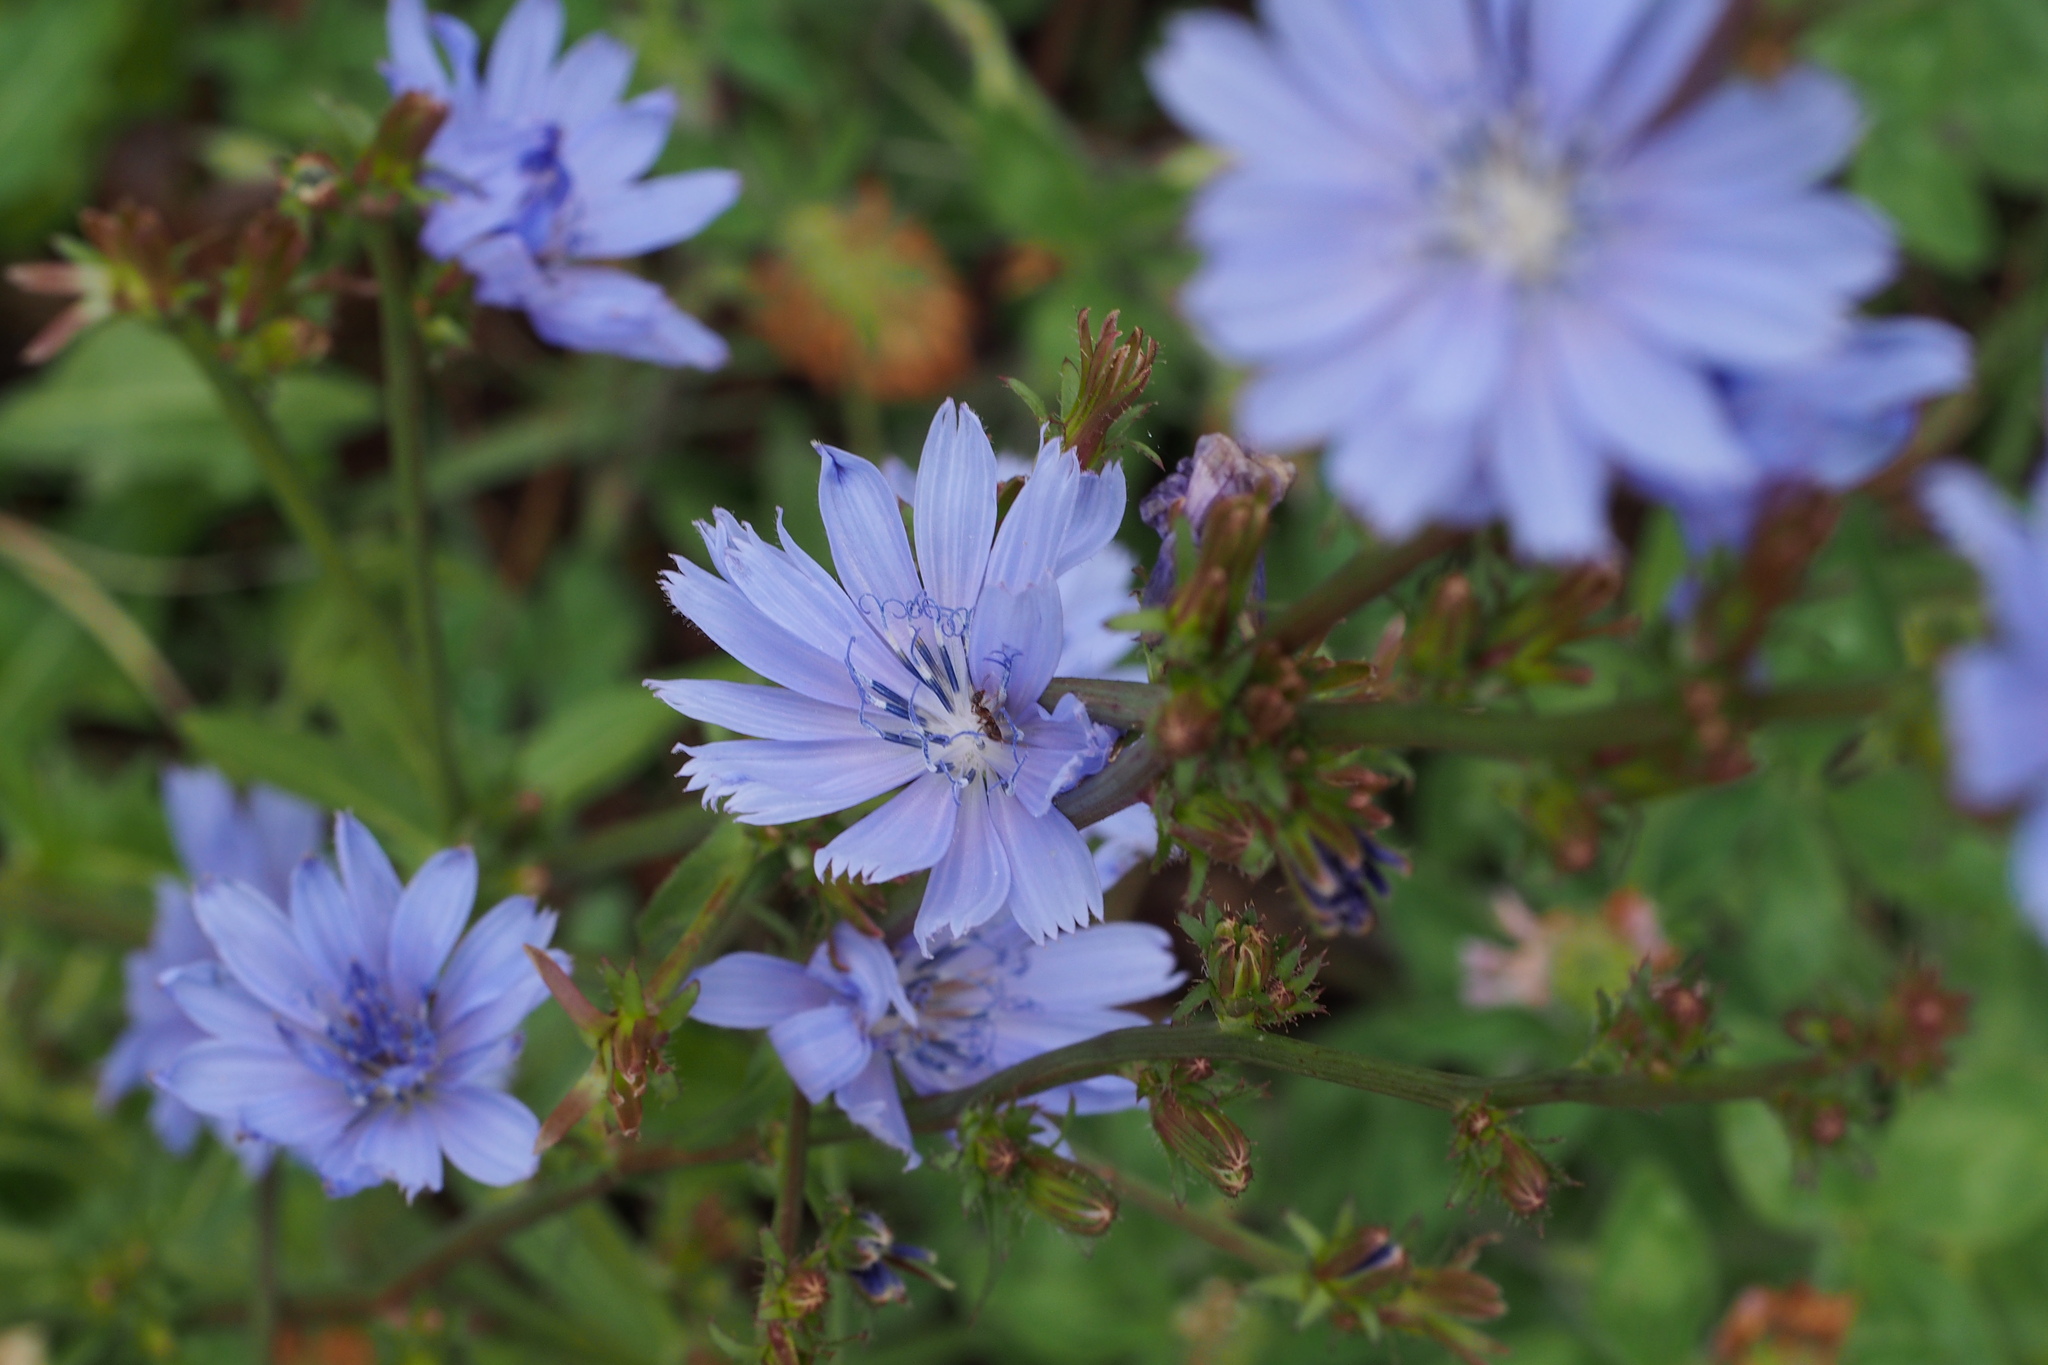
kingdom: Plantae
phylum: Tracheophyta
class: Magnoliopsida
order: Asterales
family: Asteraceae
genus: Cichorium
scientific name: Cichorium intybus
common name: Chicory
